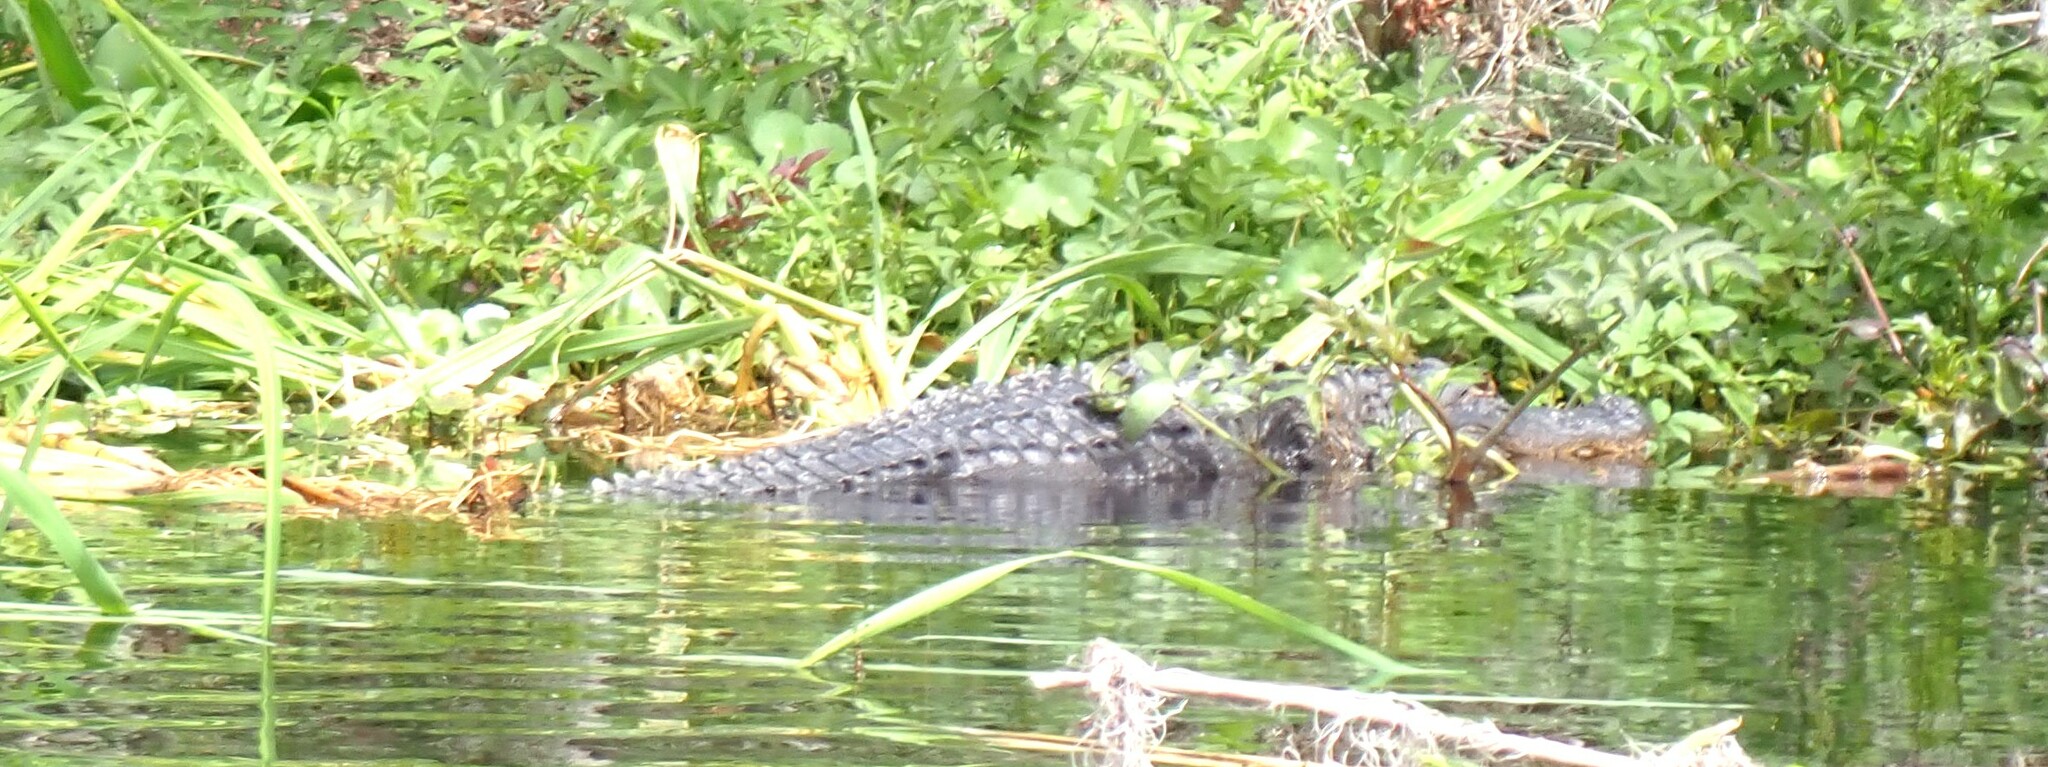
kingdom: Animalia
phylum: Chordata
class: Crocodylia
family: Alligatoridae
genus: Alligator
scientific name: Alligator mississippiensis
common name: American alligator
